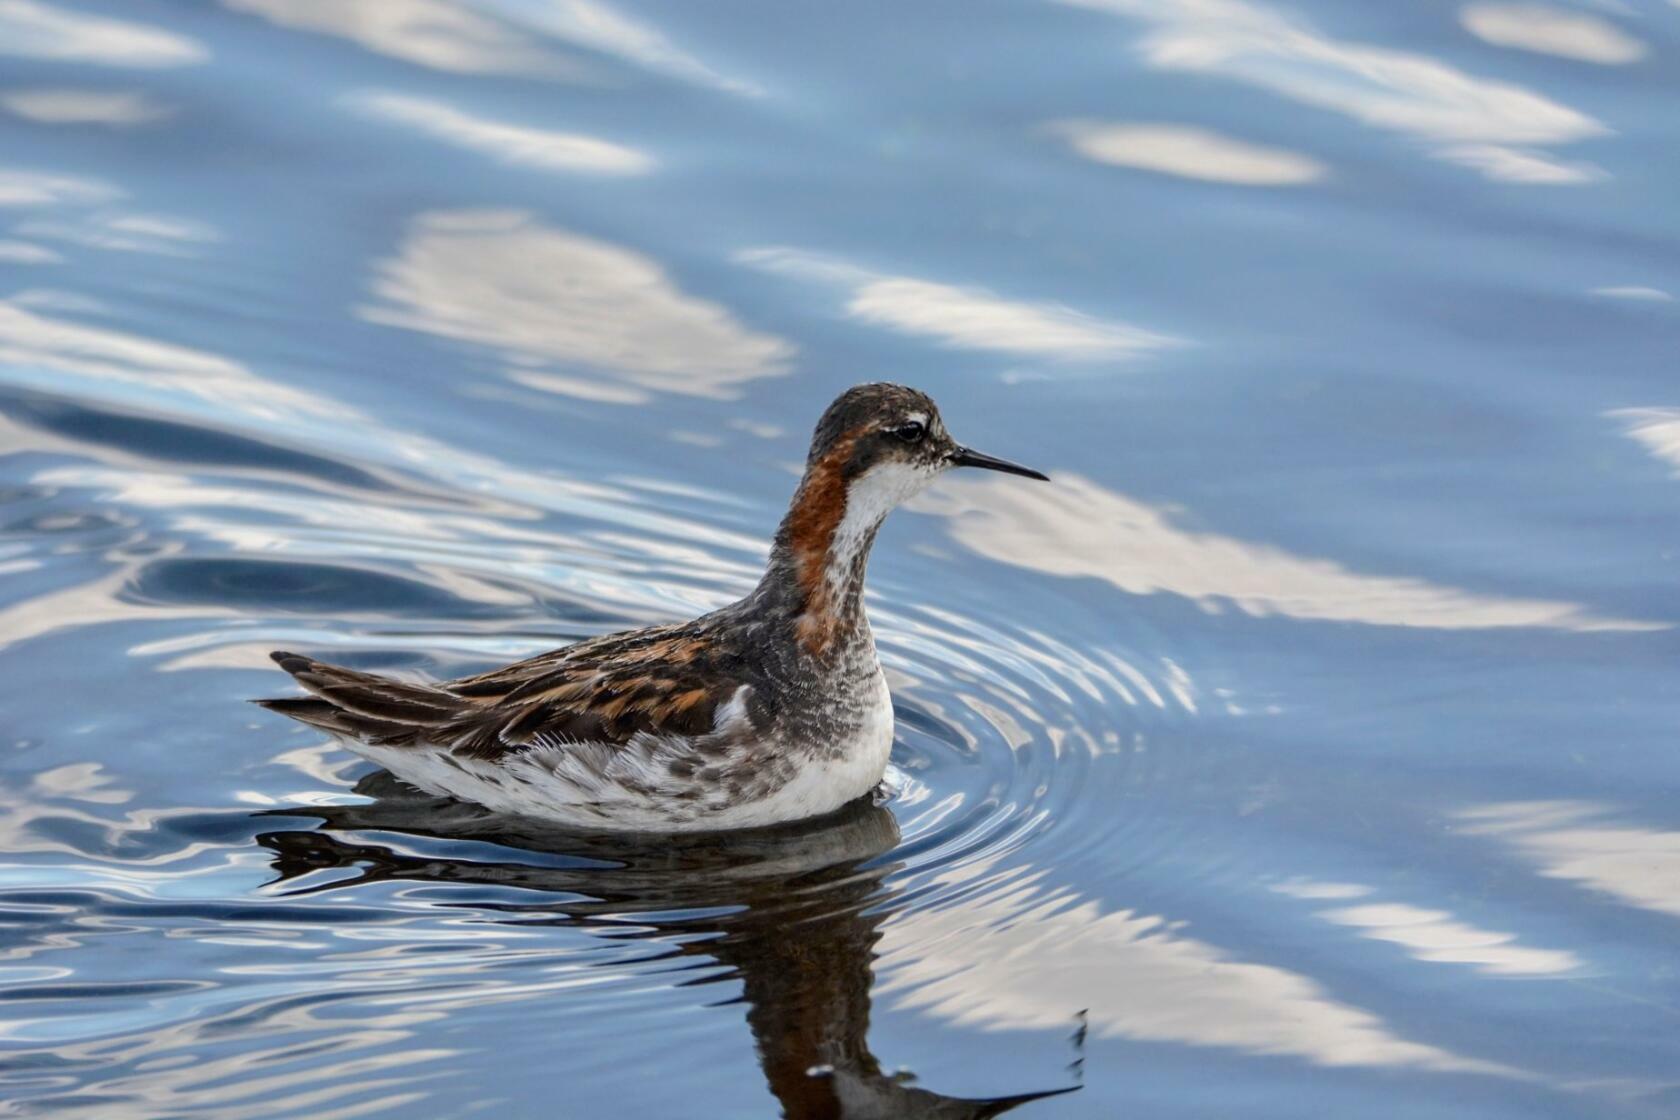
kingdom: Animalia
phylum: Chordata
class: Aves
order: Charadriiformes
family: Scolopacidae
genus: Phalaropus
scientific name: Phalaropus lobatus
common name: Red-necked phalarope
